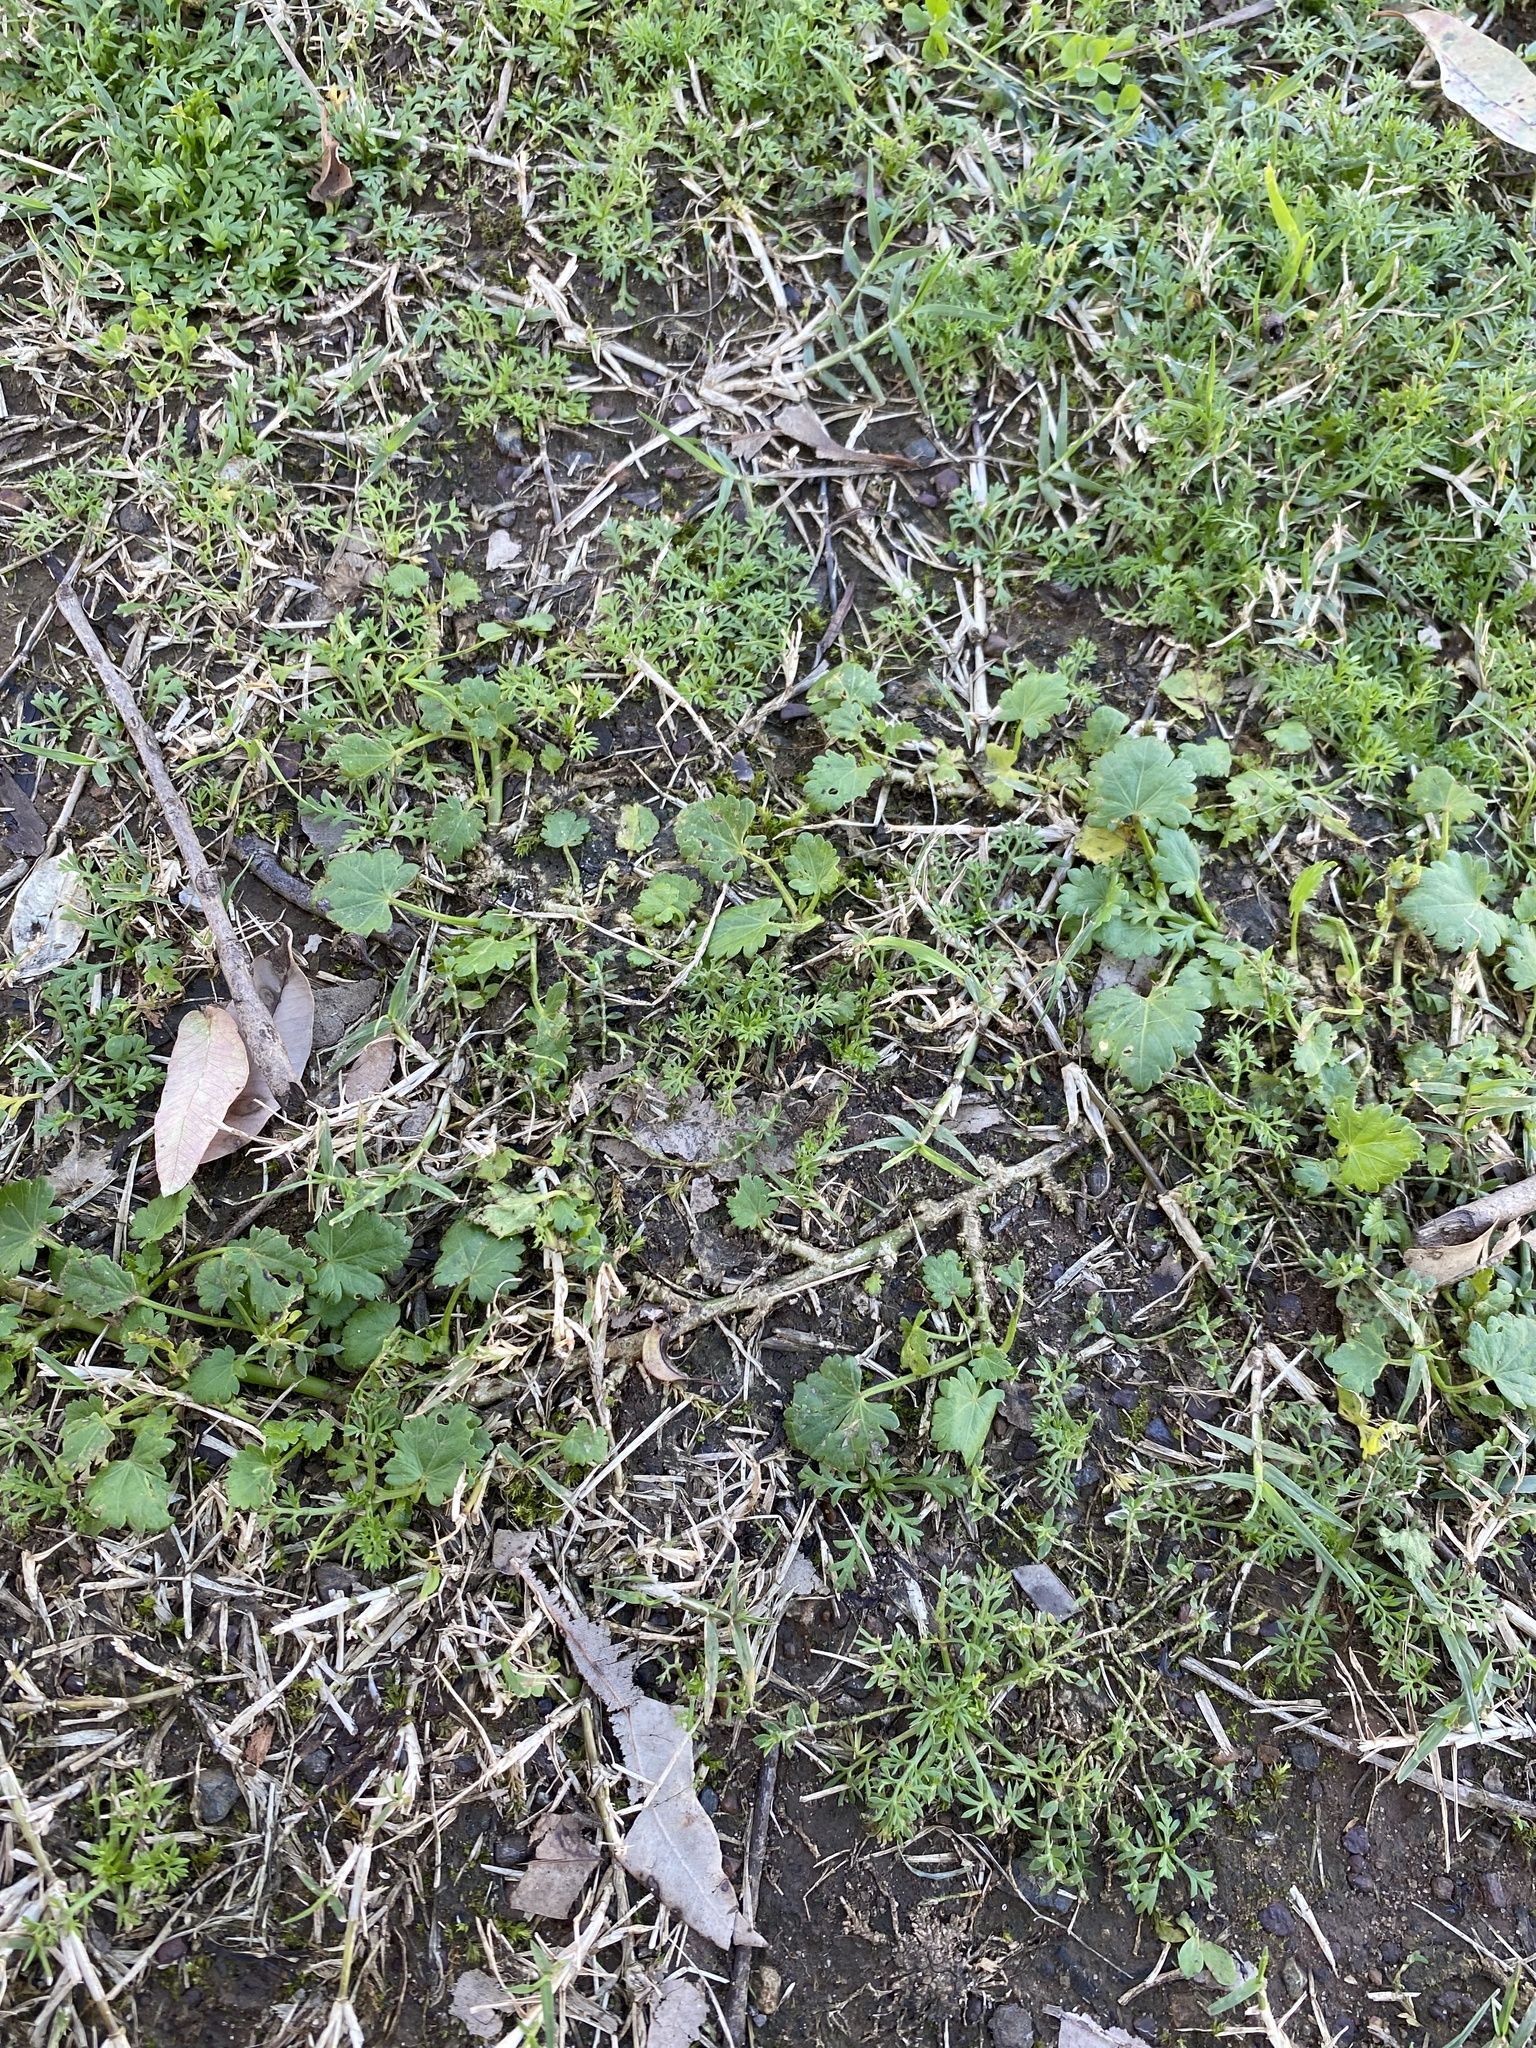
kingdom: Plantae
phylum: Tracheophyta
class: Magnoliopsida
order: Malvales
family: Malvaceae
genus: Modiola
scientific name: Modiola caroliniana
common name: Carolina bristlemallow
